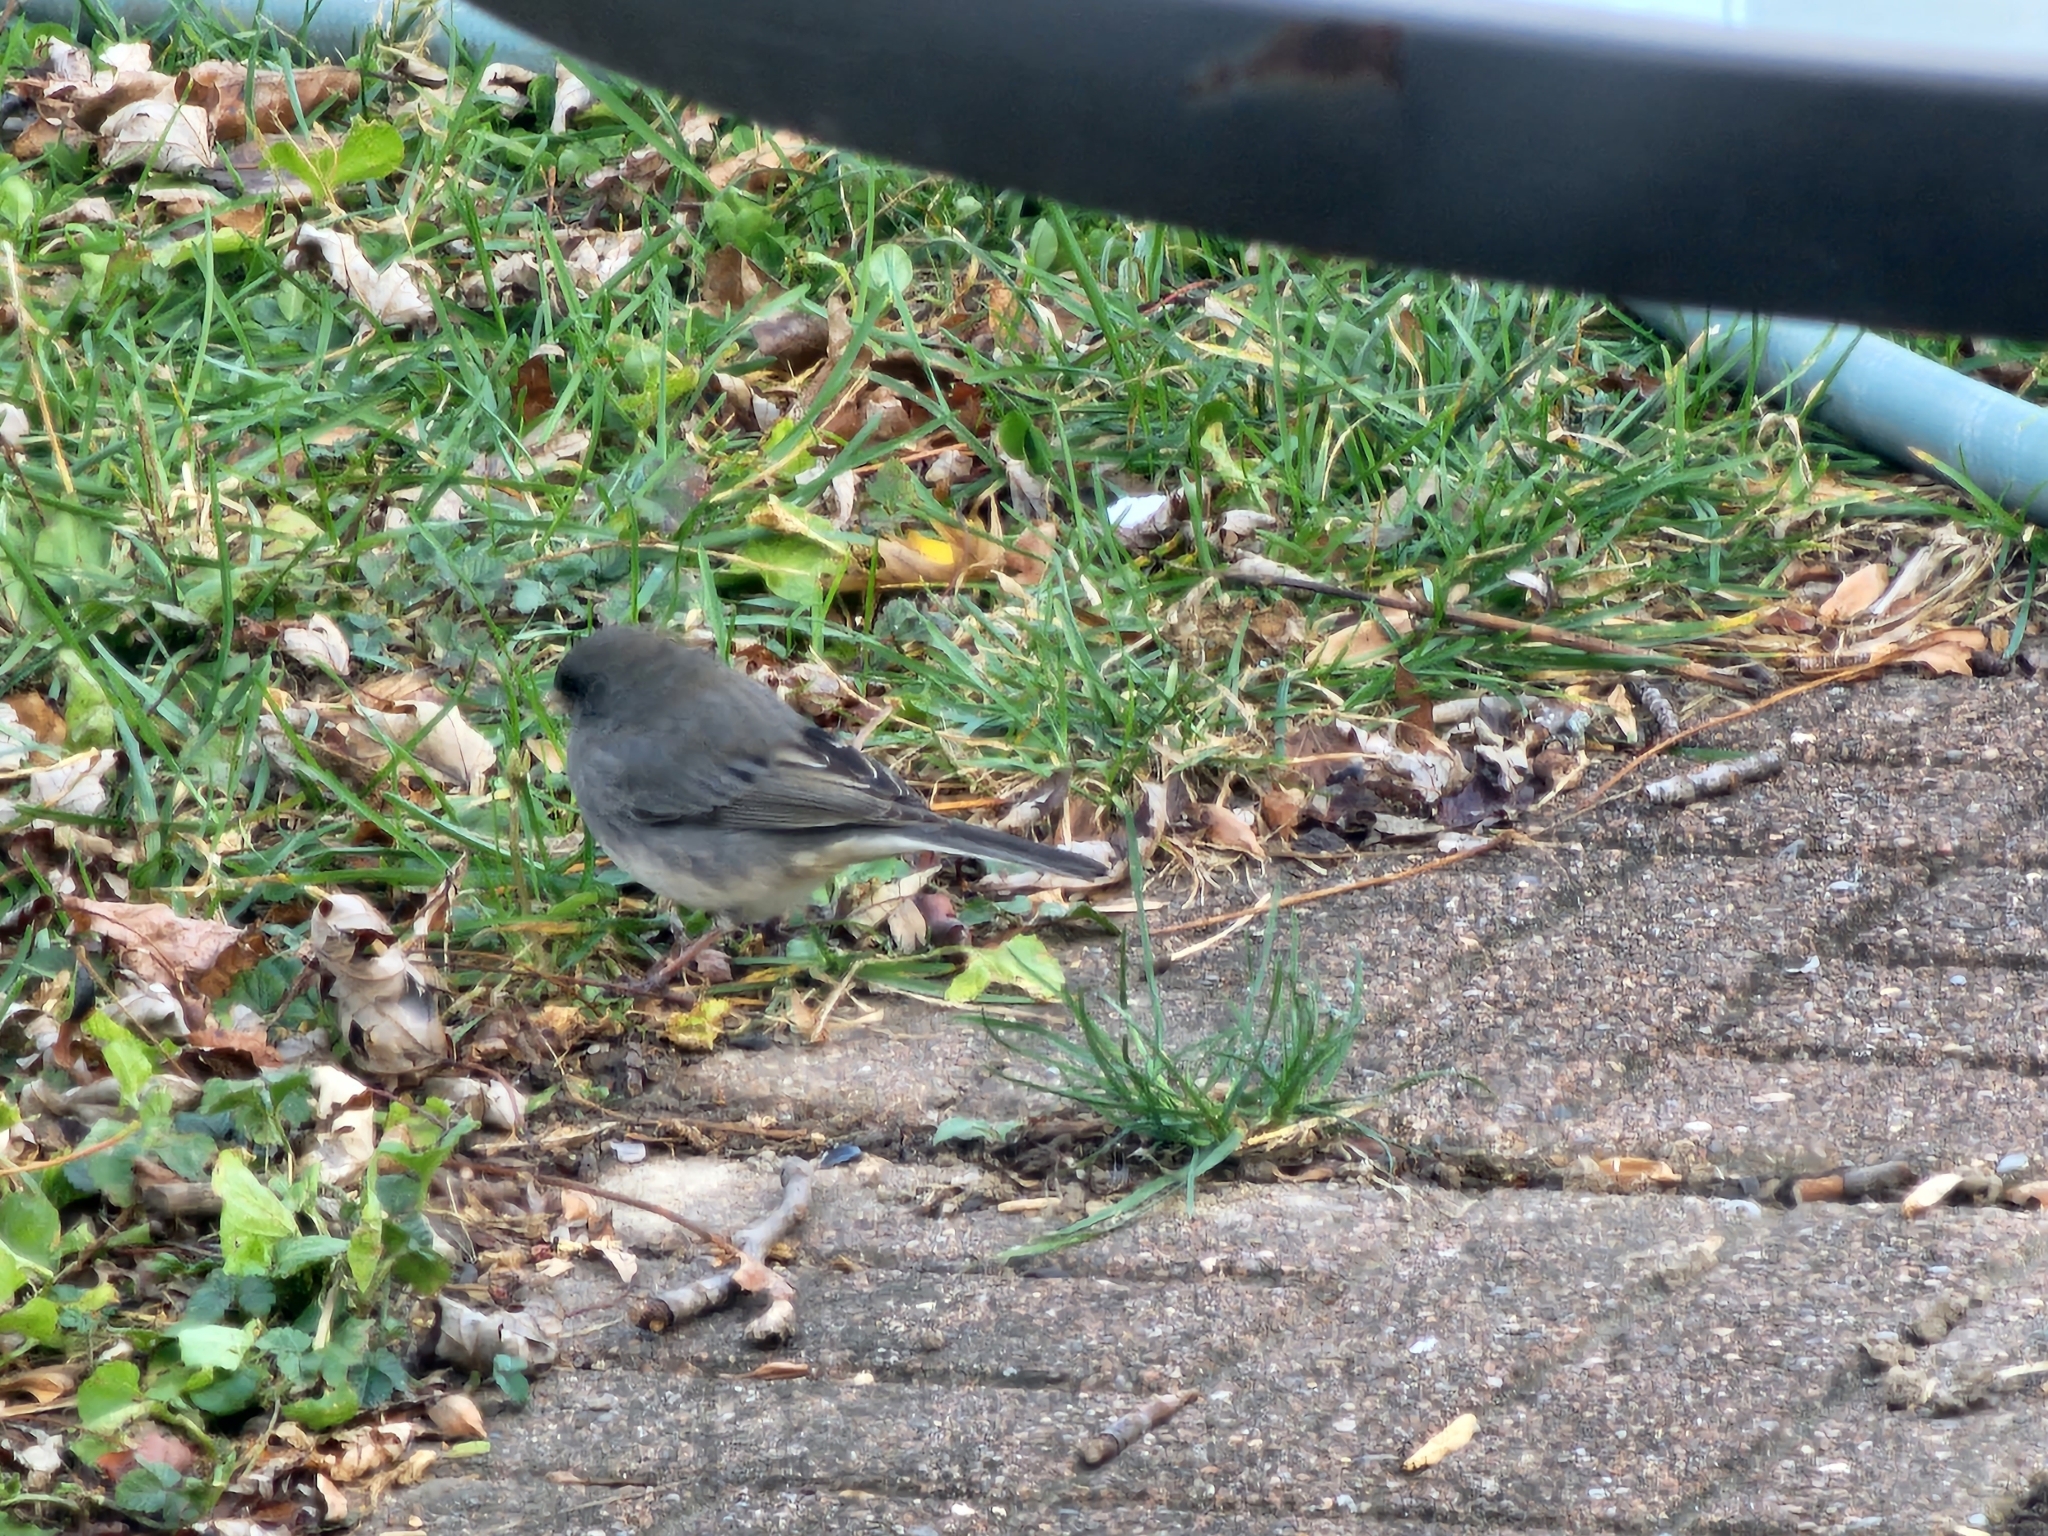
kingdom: Animalia
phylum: Chordata
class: Aves
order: Passeriformes
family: Passerellidae
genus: Junco
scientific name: Junco hyemalis
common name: Dark-eyed junco
